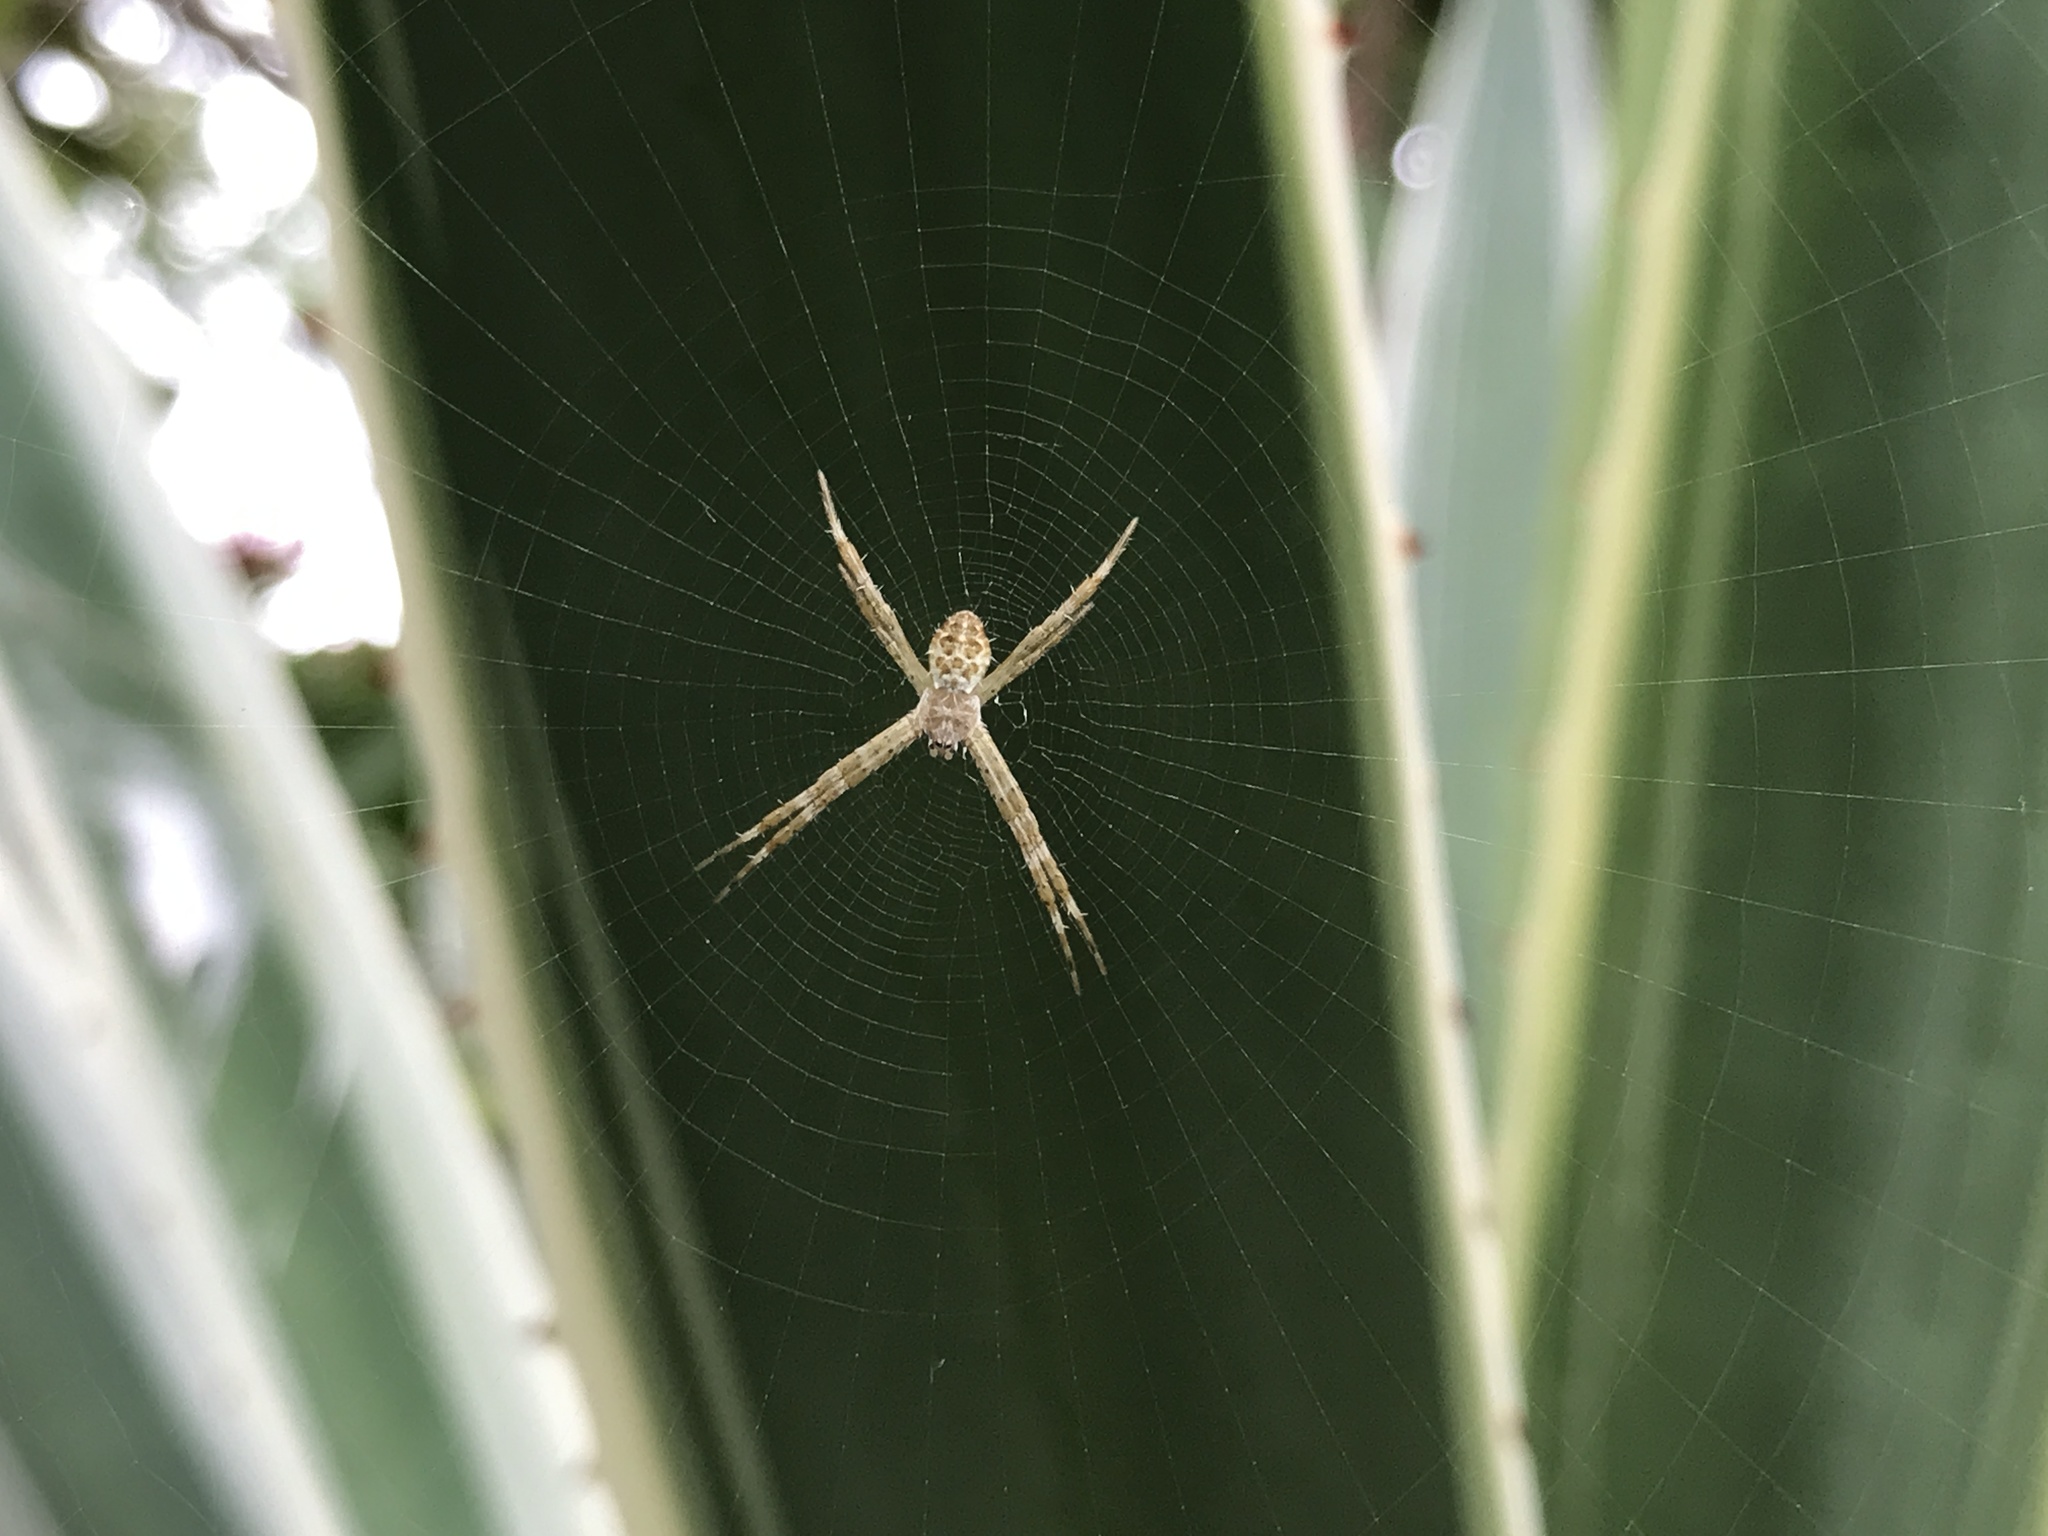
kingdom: Animalia
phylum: Arthropoda
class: Arachnida
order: Araneae
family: Araneidae
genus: Argiope
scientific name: Argiope appensa
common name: Garden spider
